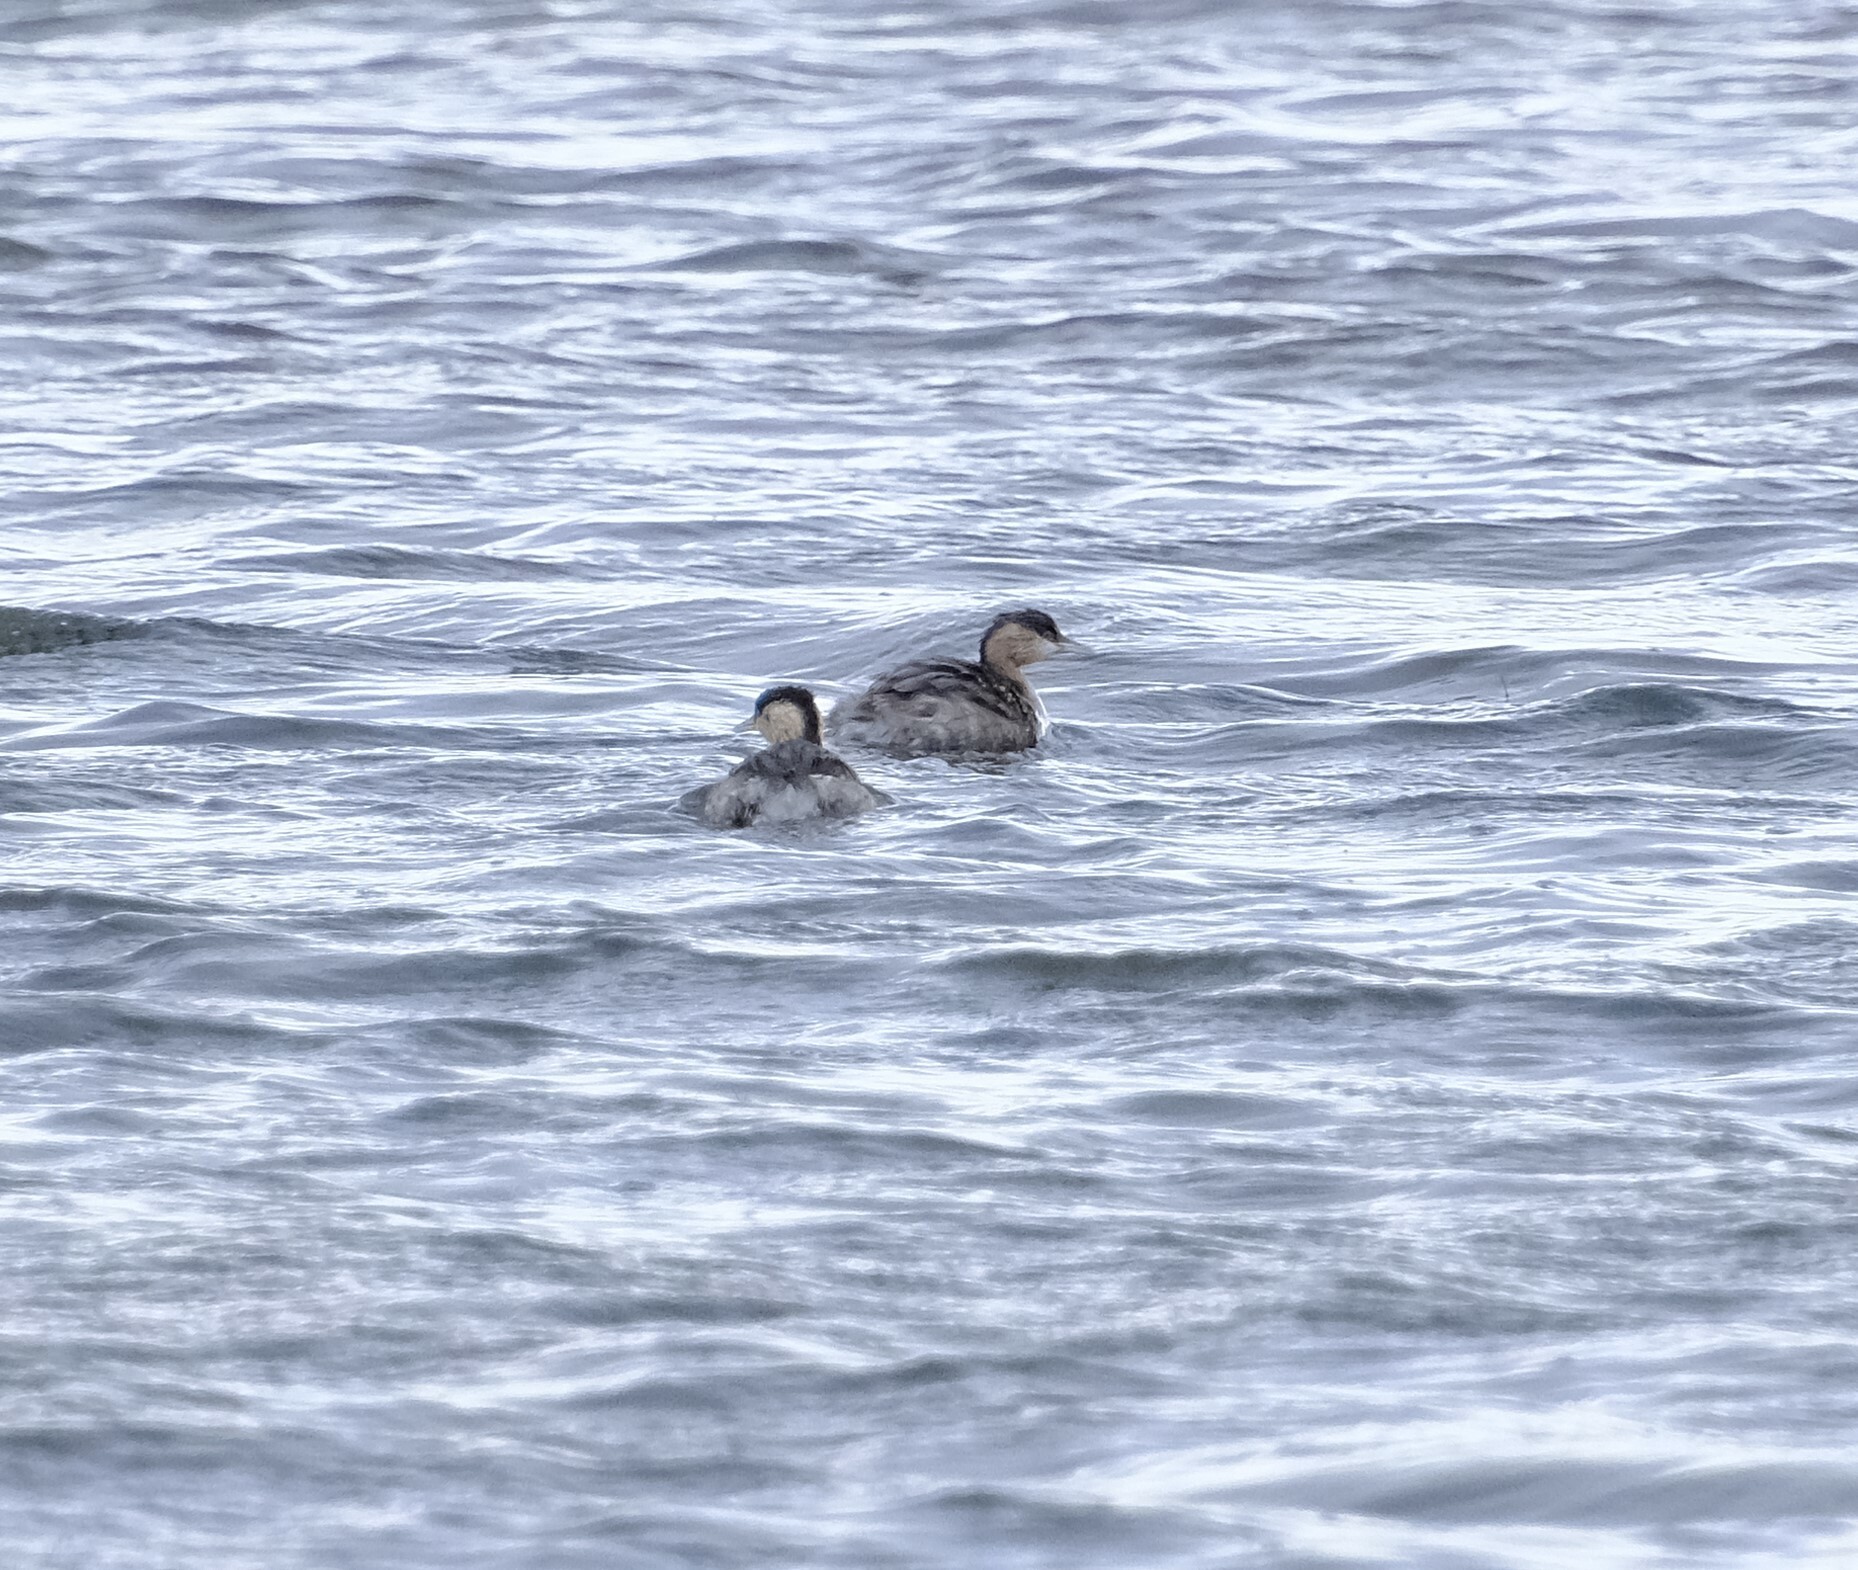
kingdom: Animalia
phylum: Chordata
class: Aves
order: Podicipediformes
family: Podicipedidae
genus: Poliocephalus
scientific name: Poliocephalus poliocephalus
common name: Hoary-headed grebe
